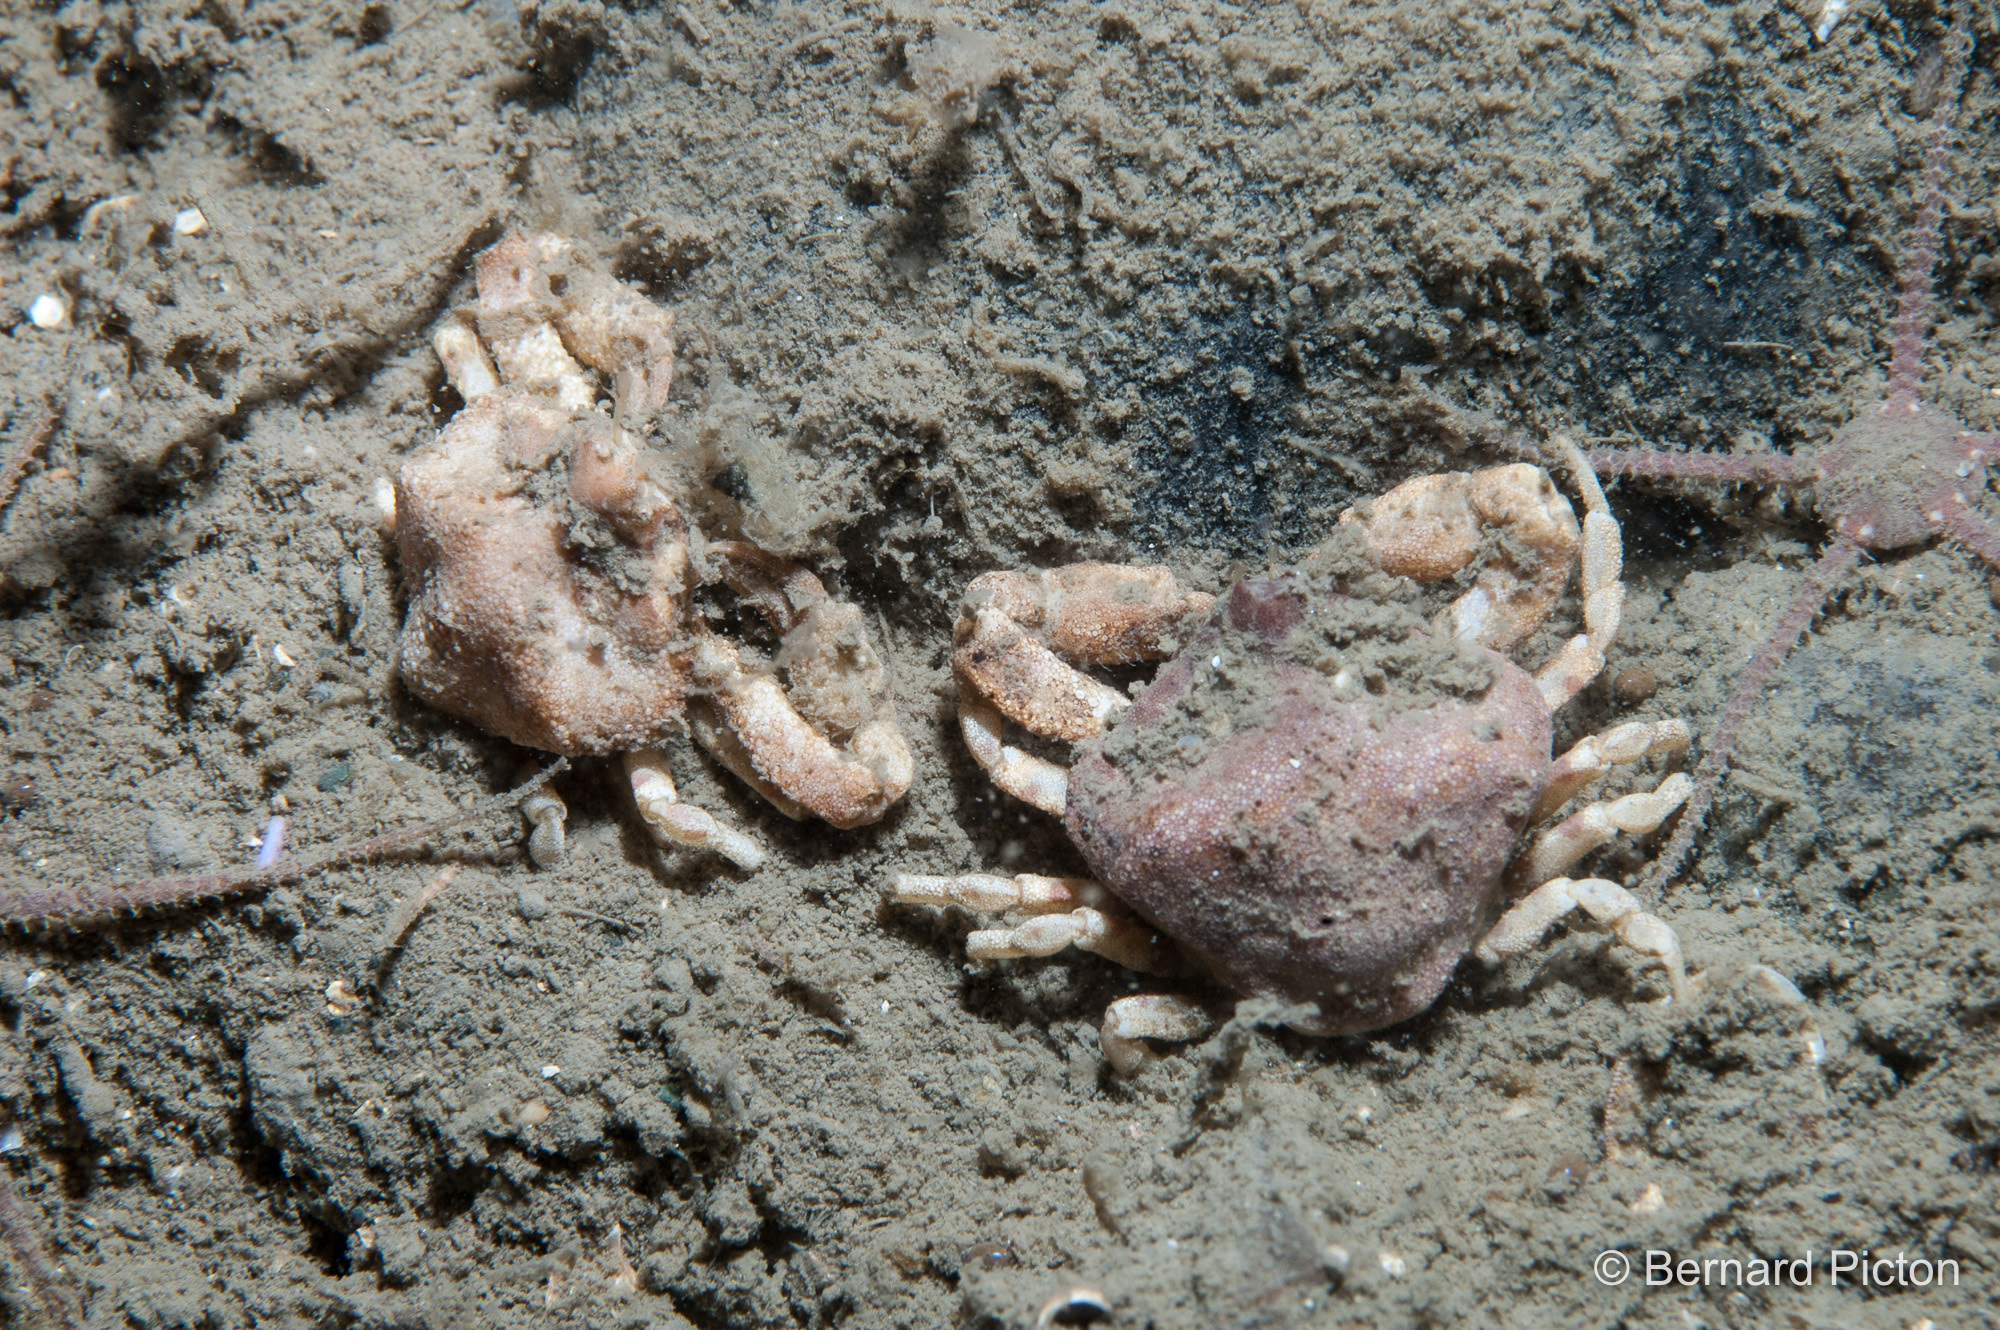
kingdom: Animalia
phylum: Arthropoda
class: Malacostraca
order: Decapoda
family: Leucosiidae
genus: Ebalia
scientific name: Ebalia tuberosa
